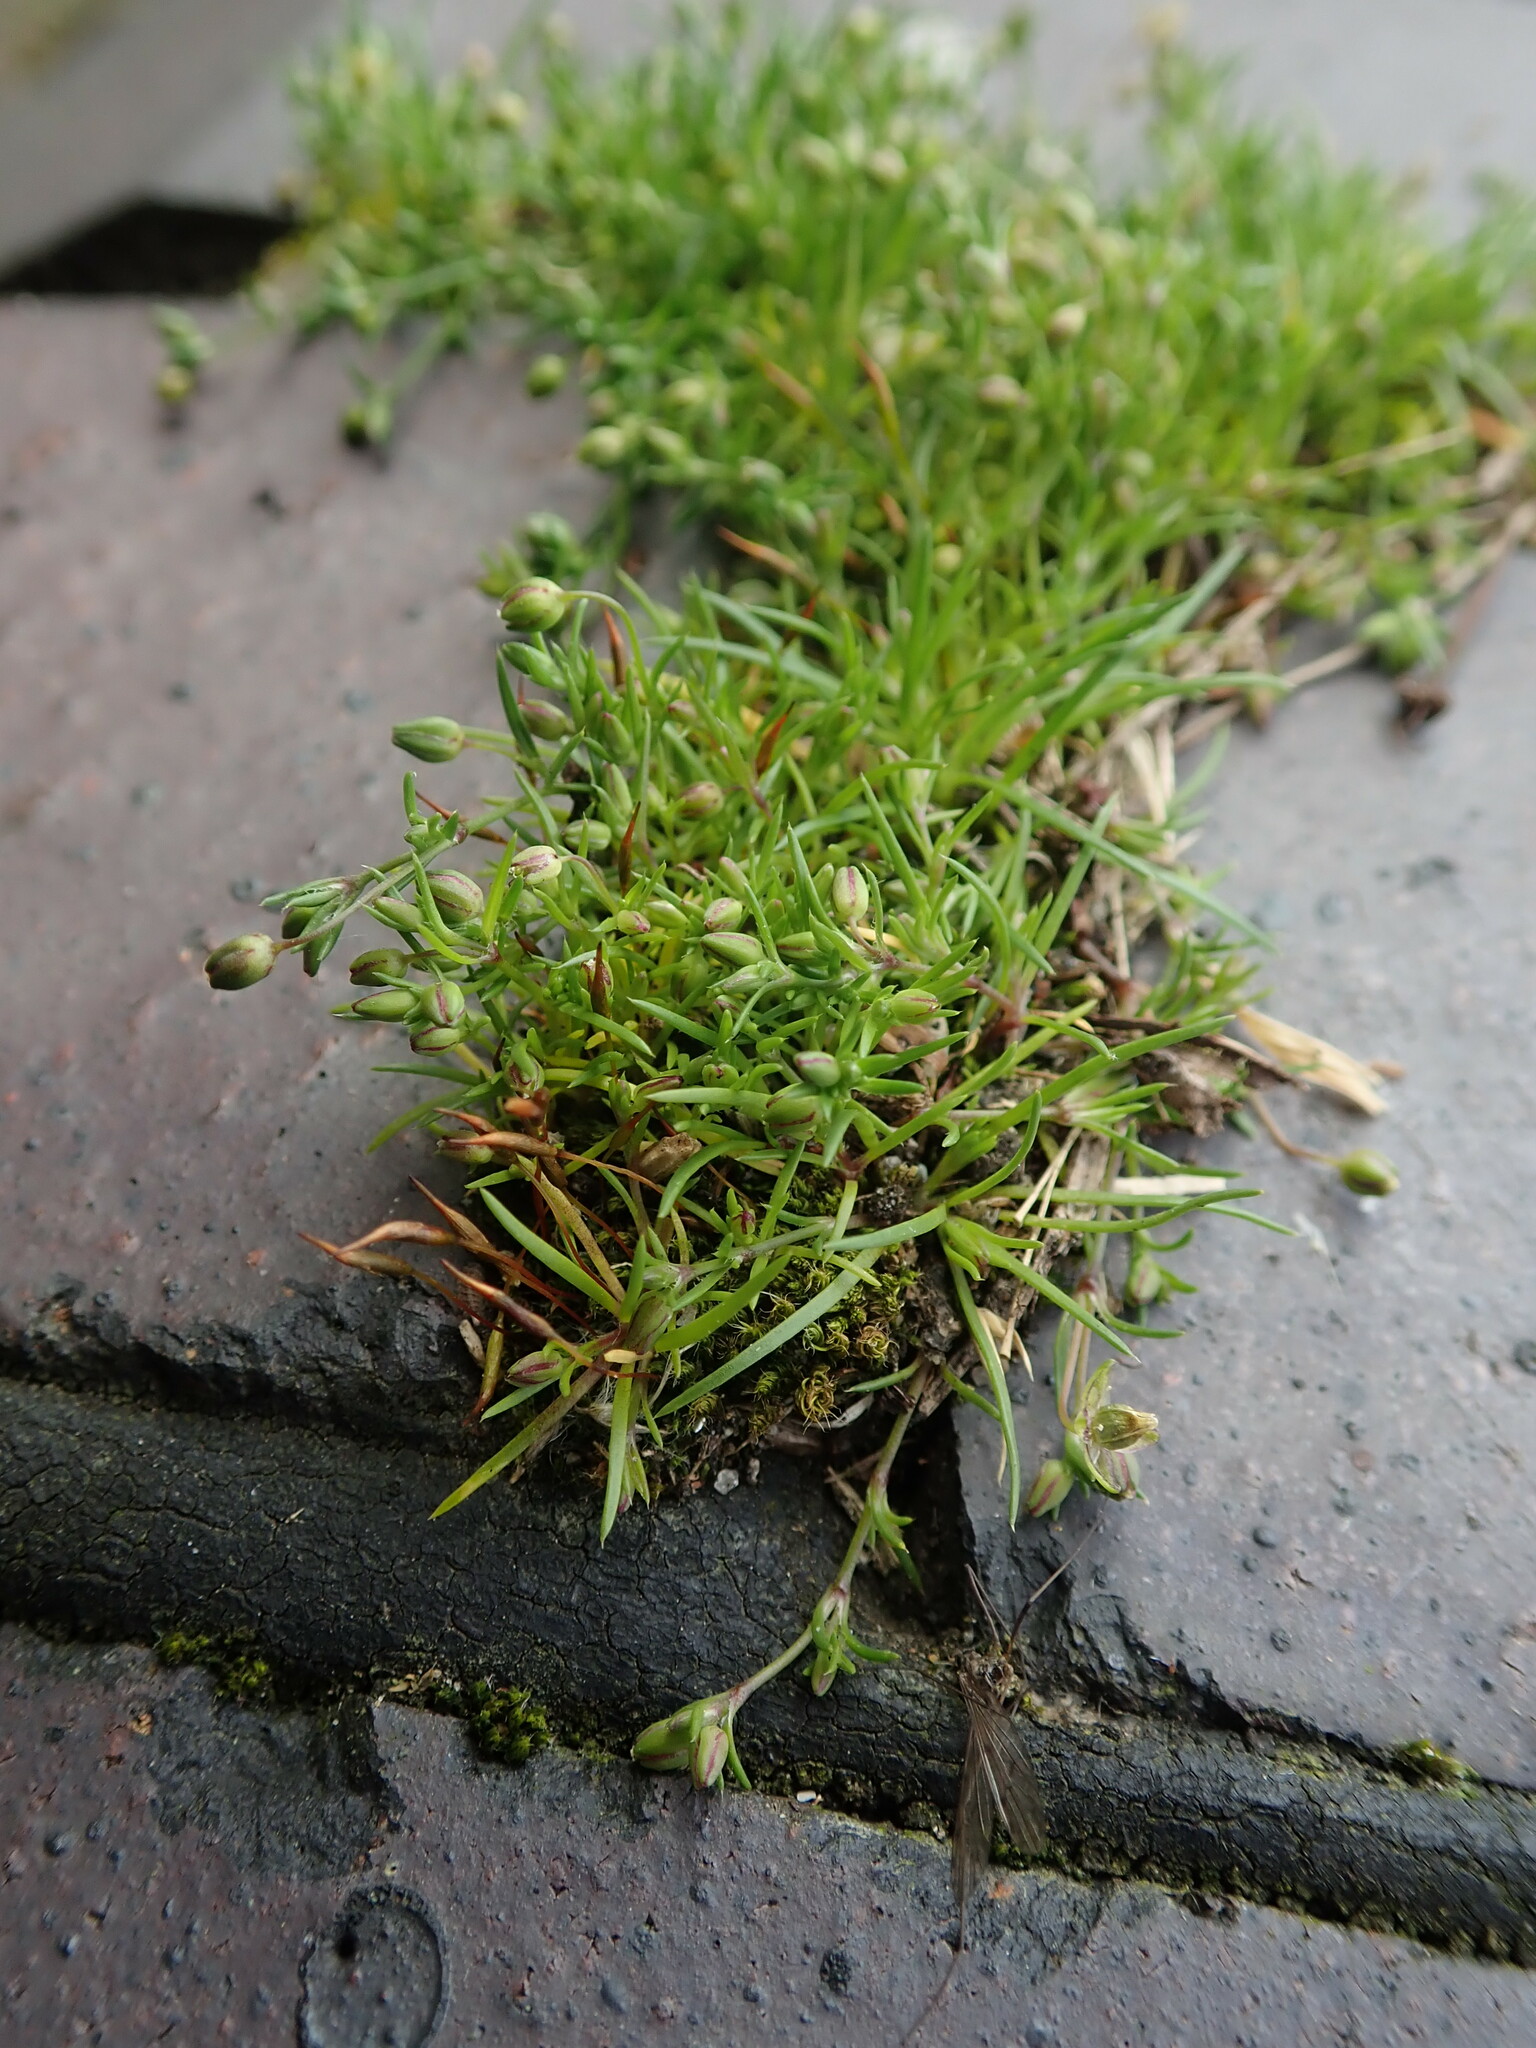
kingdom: Plantae
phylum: Tracheophyta
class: Magnoliopsida
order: Caryophyllales
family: Caryophyllaceae
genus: Sagina
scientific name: Sagina procumbens
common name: Procumbent pearlwort
